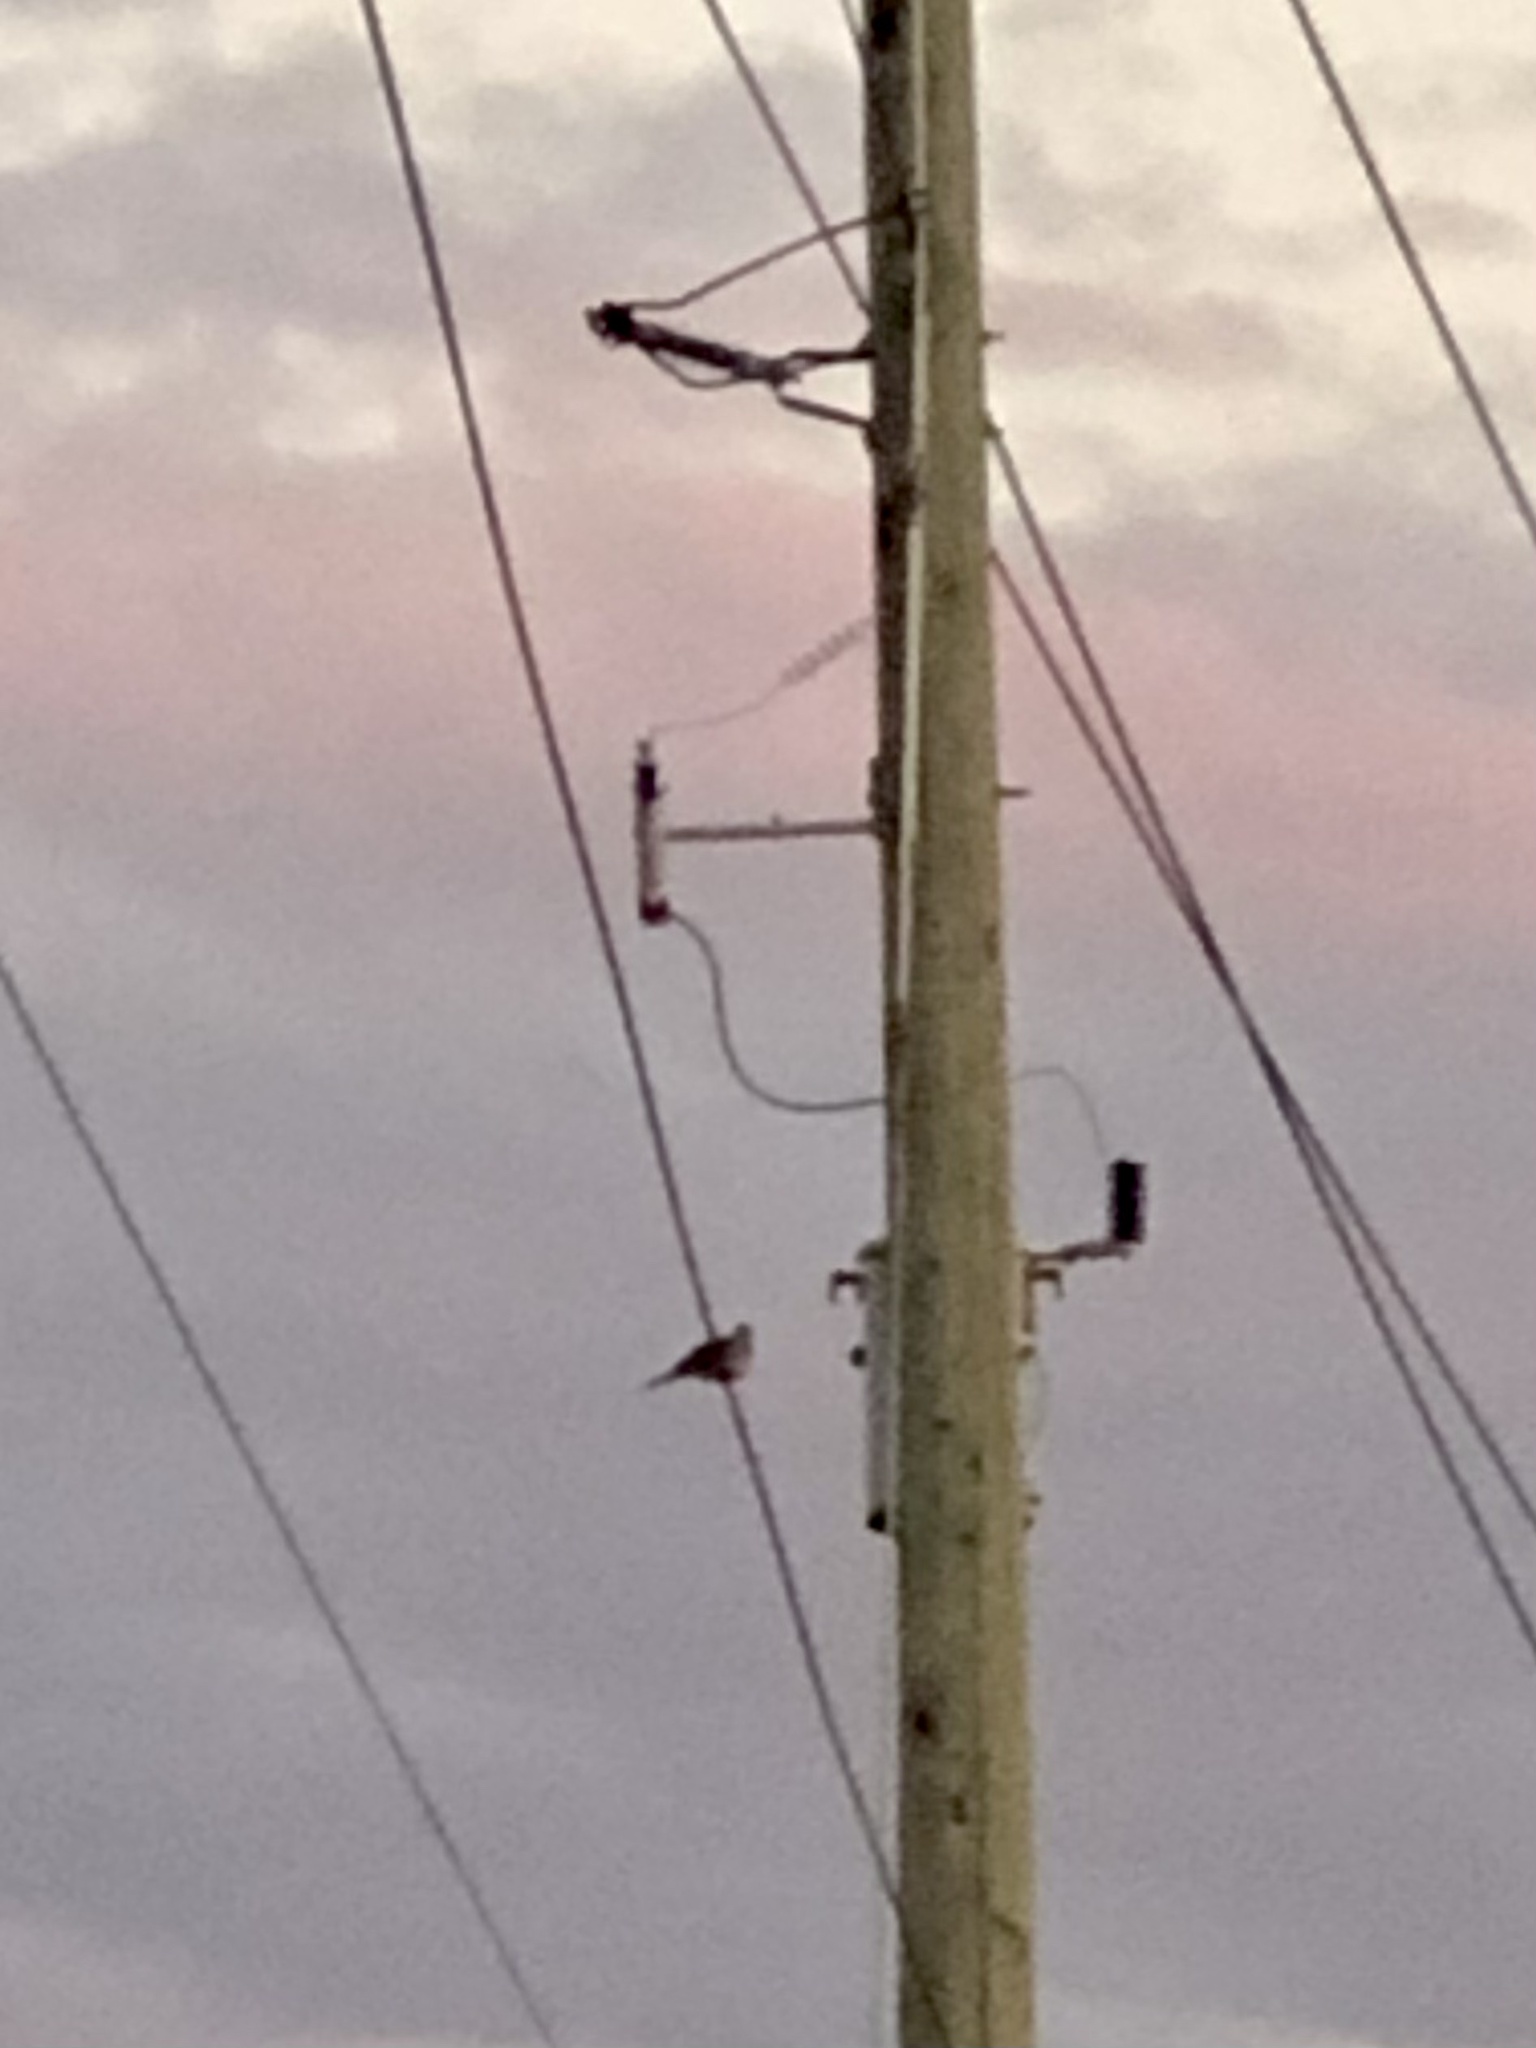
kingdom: Animalia
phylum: Chordata
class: Aves
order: Columbiformes
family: Columbidae
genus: Zenaida
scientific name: Zenaida macroura
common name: Mourning dove
